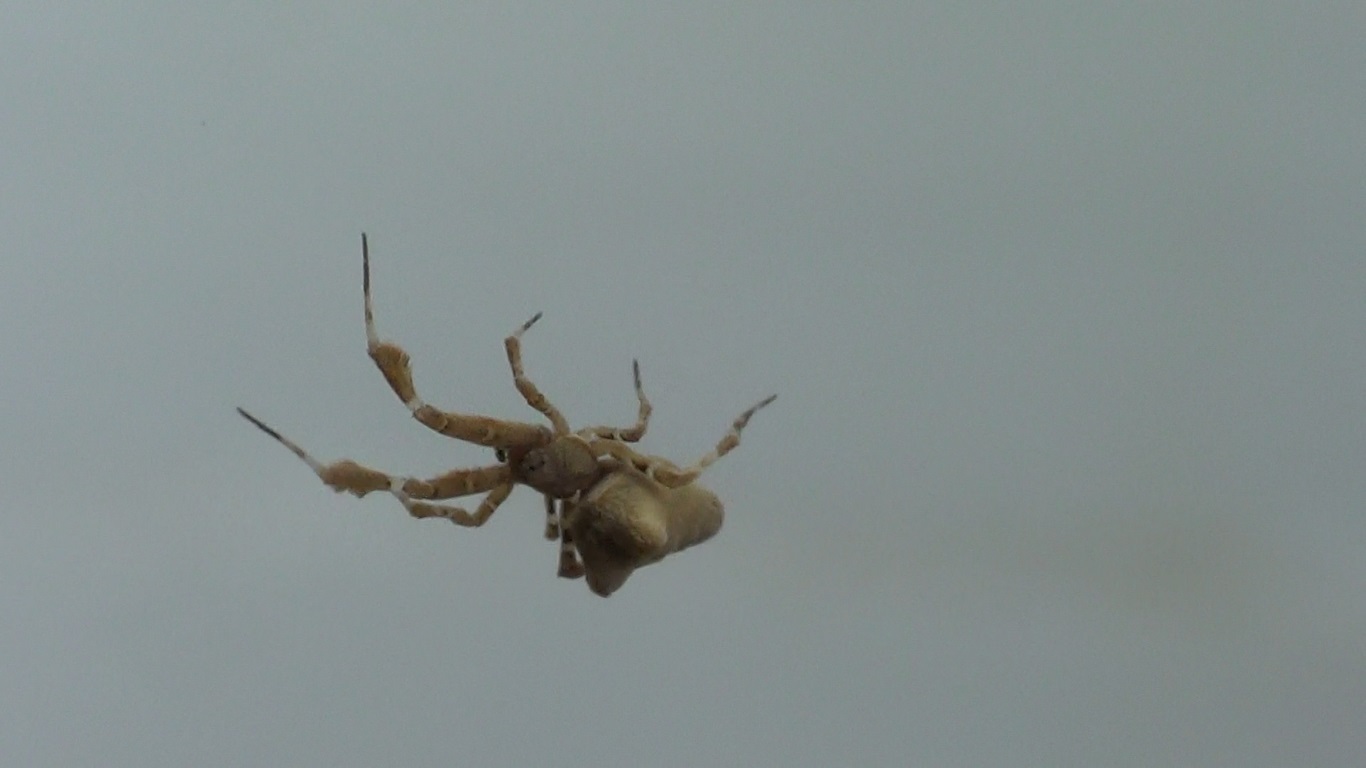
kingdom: Animalia
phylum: Arthropoda
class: Arachnida
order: Araneae
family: Uloboridae
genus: Uloborus
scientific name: Uloborus plumipes
